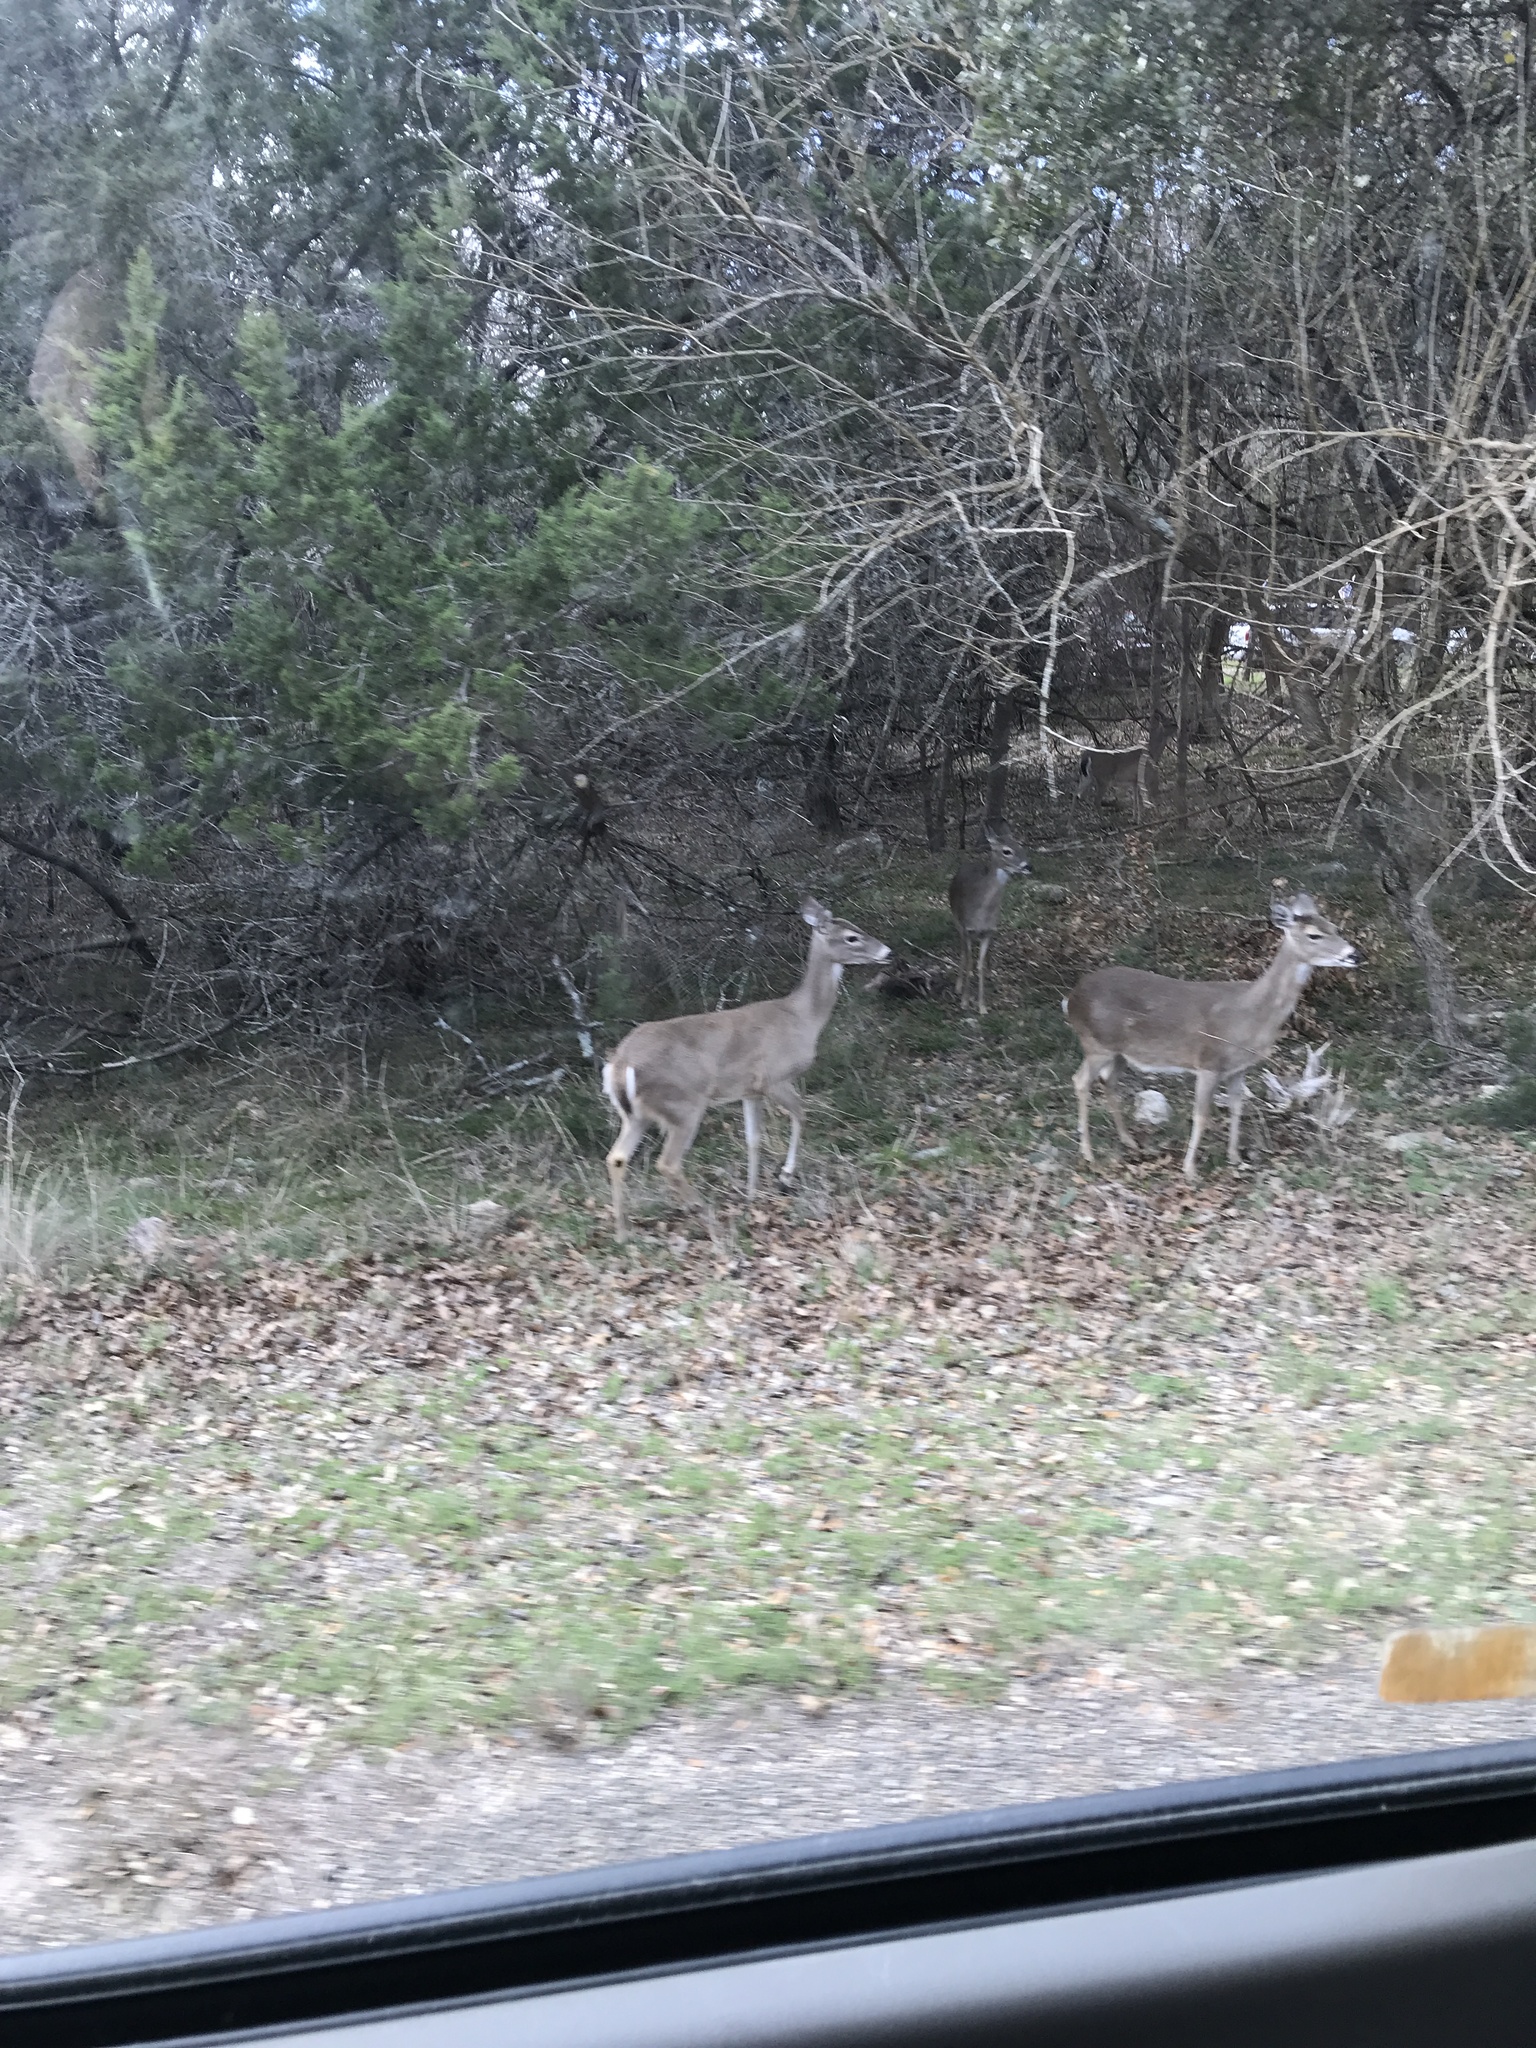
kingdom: Animalia
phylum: Chordata
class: Mammalia
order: Artiodactyla
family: Cervidae
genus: Odocoileus
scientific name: Odocoileus virginianus
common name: White-tailed deer
